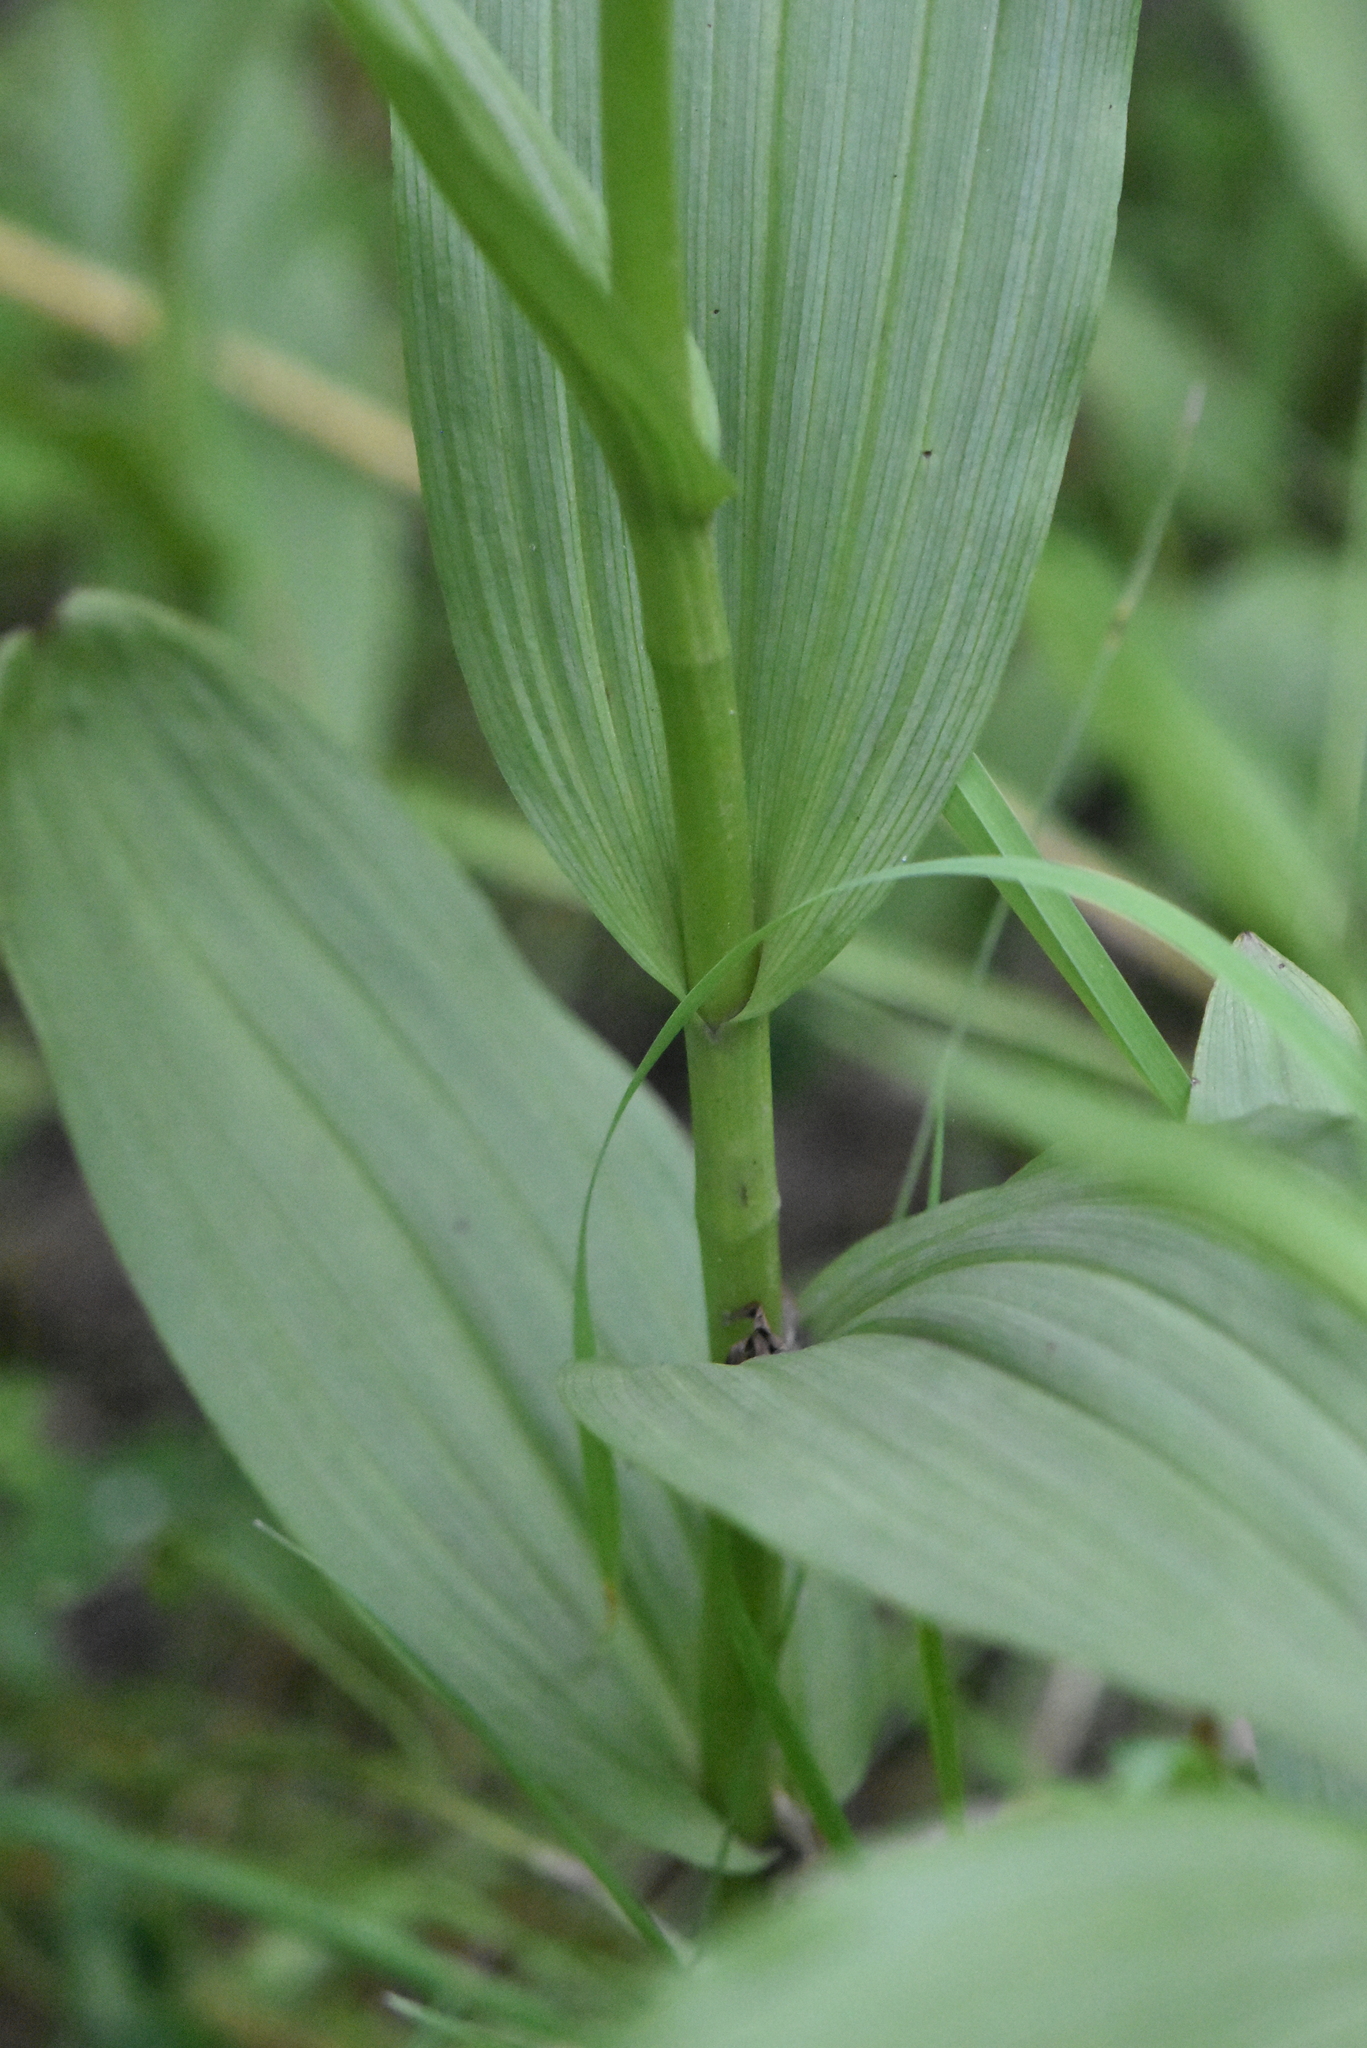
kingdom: Plantae
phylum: Tracheophyta
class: Liliopsida
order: Asparagales
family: Orchidaceae
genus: Epipactis
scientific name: Epipactis palustris
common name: Marsh helleborine
